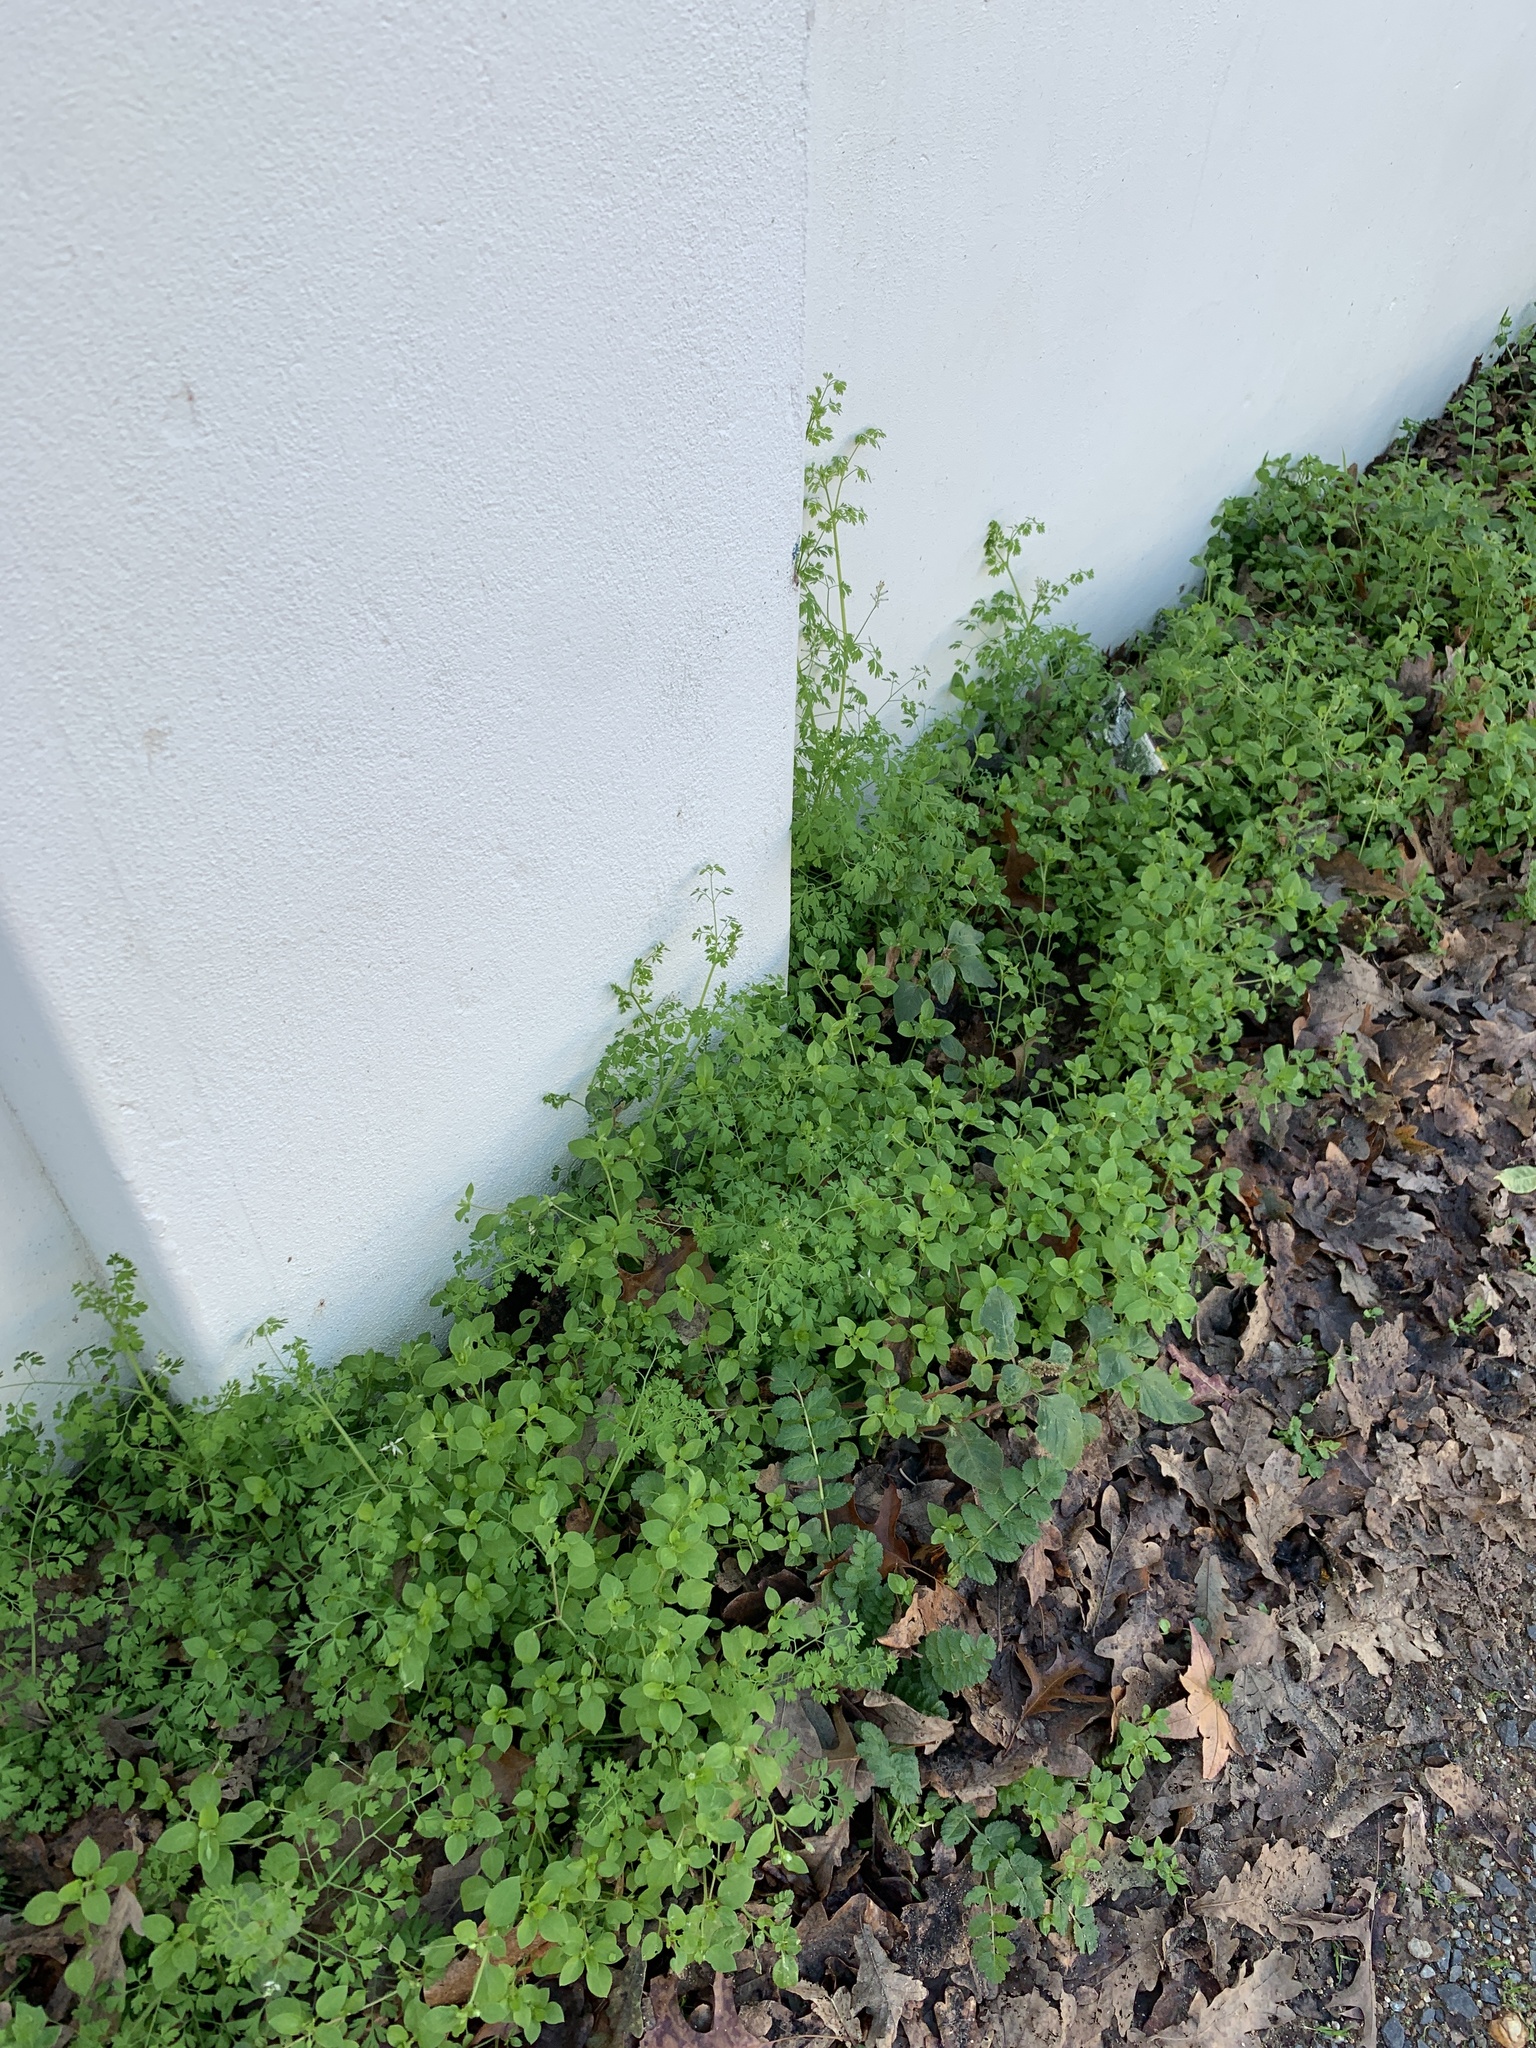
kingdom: Plantae
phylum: Tracheophyta
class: Magnoliopsida
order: Ranunculales
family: Papaveraceae
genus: Fumaria
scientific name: Fumaria muralis
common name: Common ramping-fumitory
